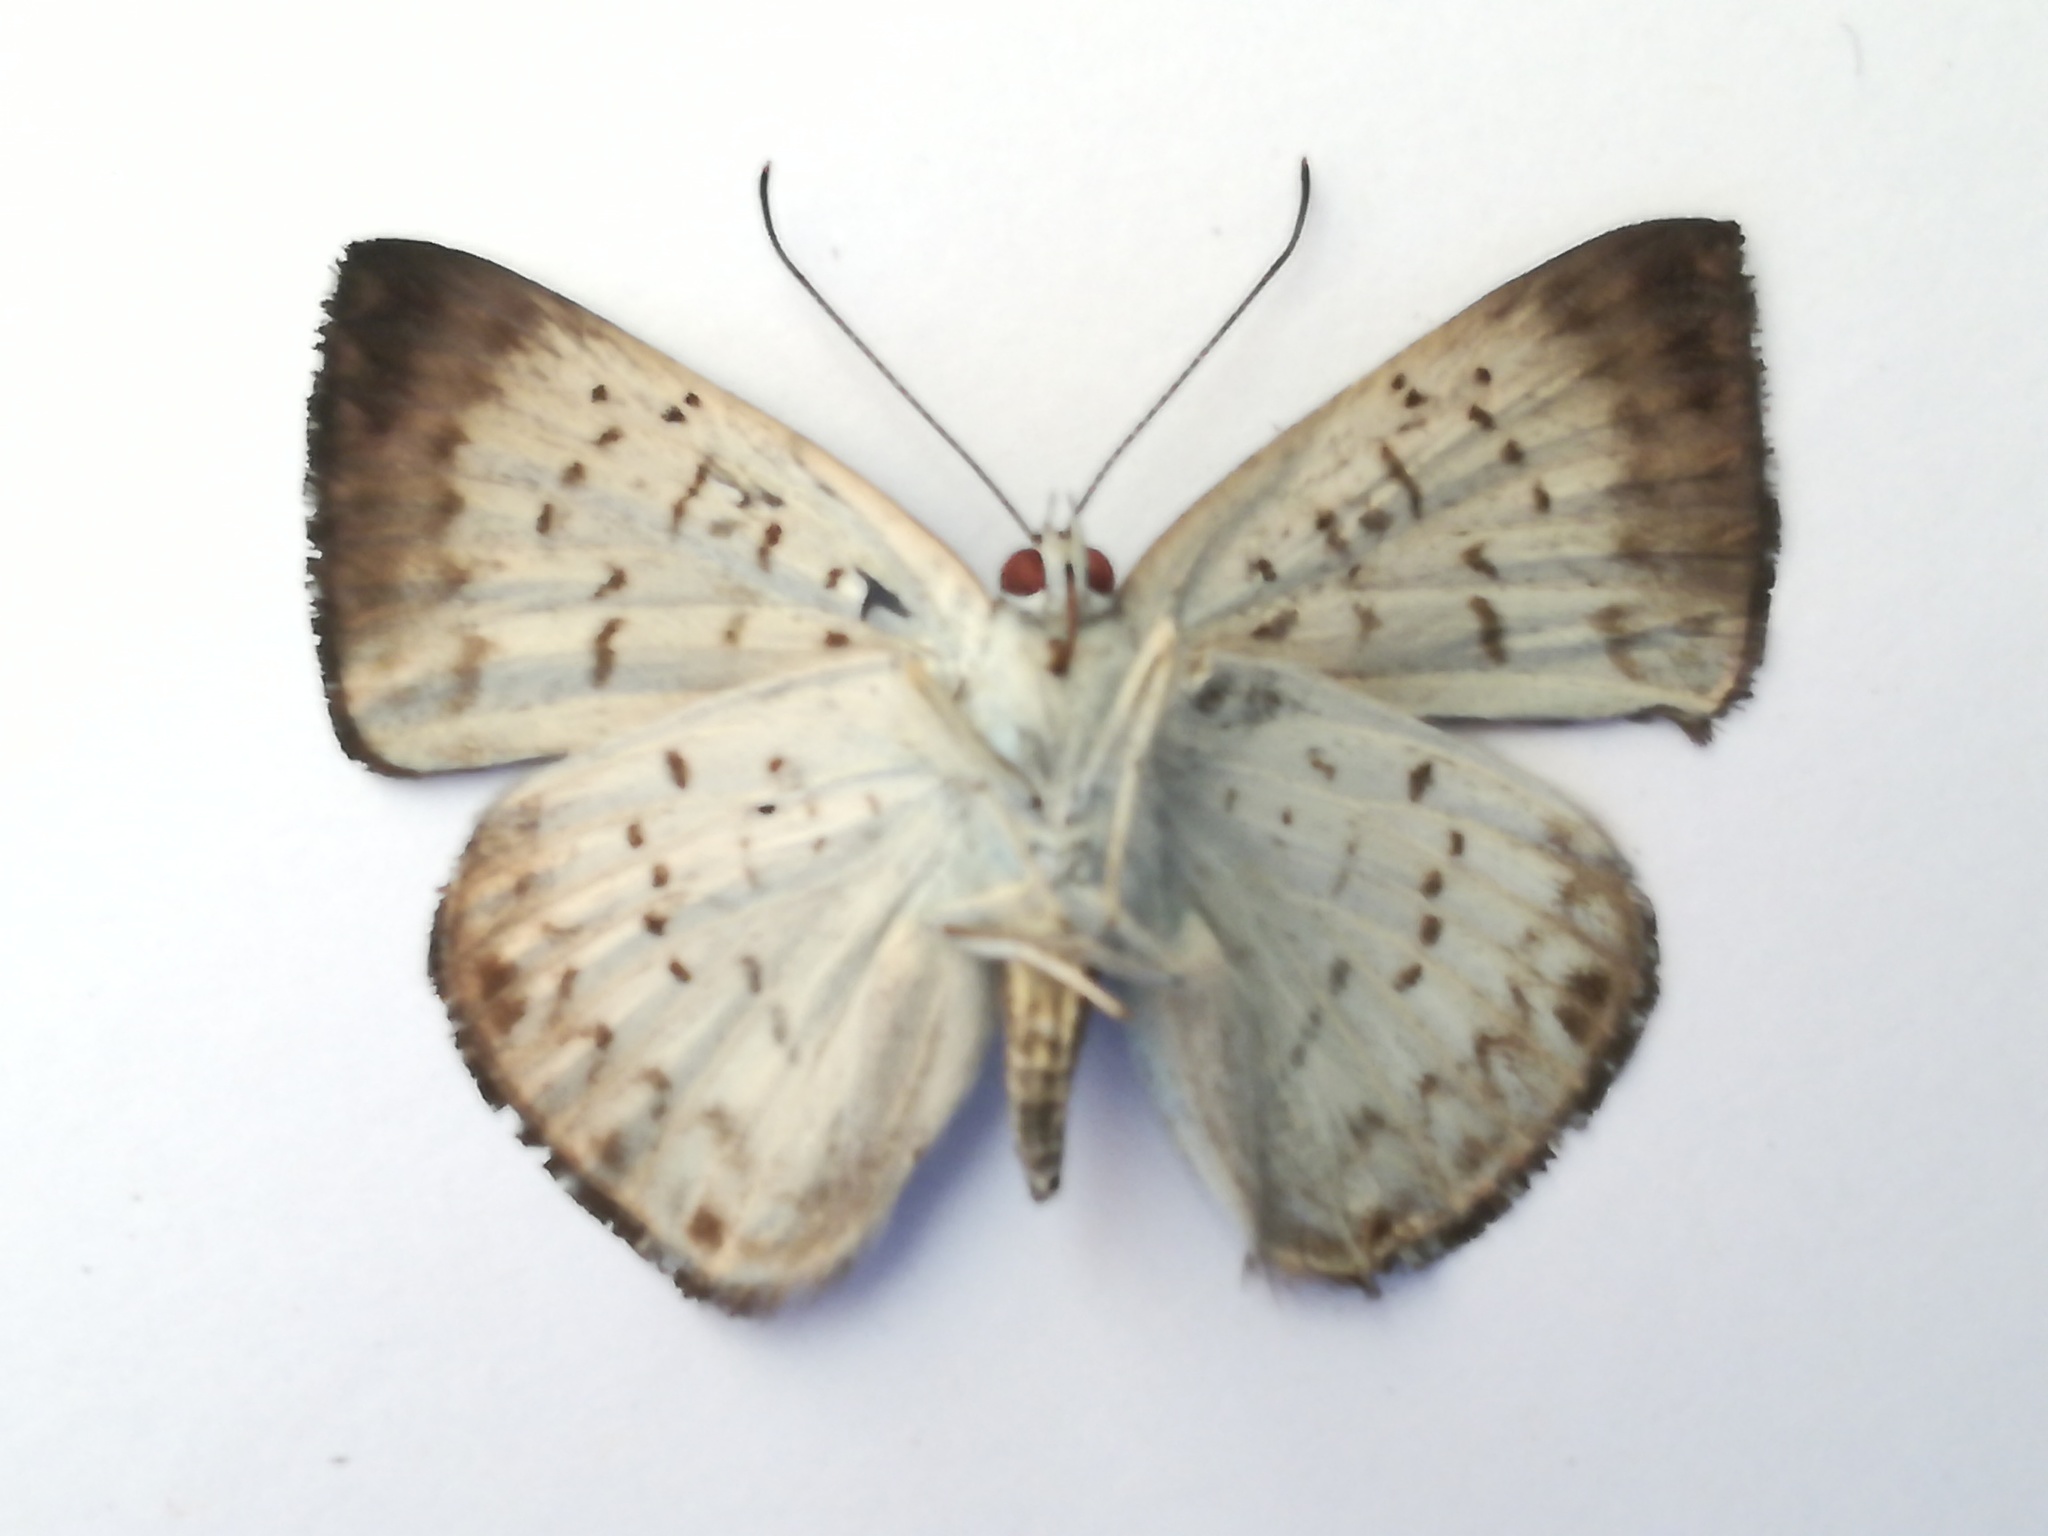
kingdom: Animalia
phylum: Arthropoda
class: Insecta
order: Lepidoptera
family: Riodinidae
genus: Periplacis
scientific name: Periplacis menander
